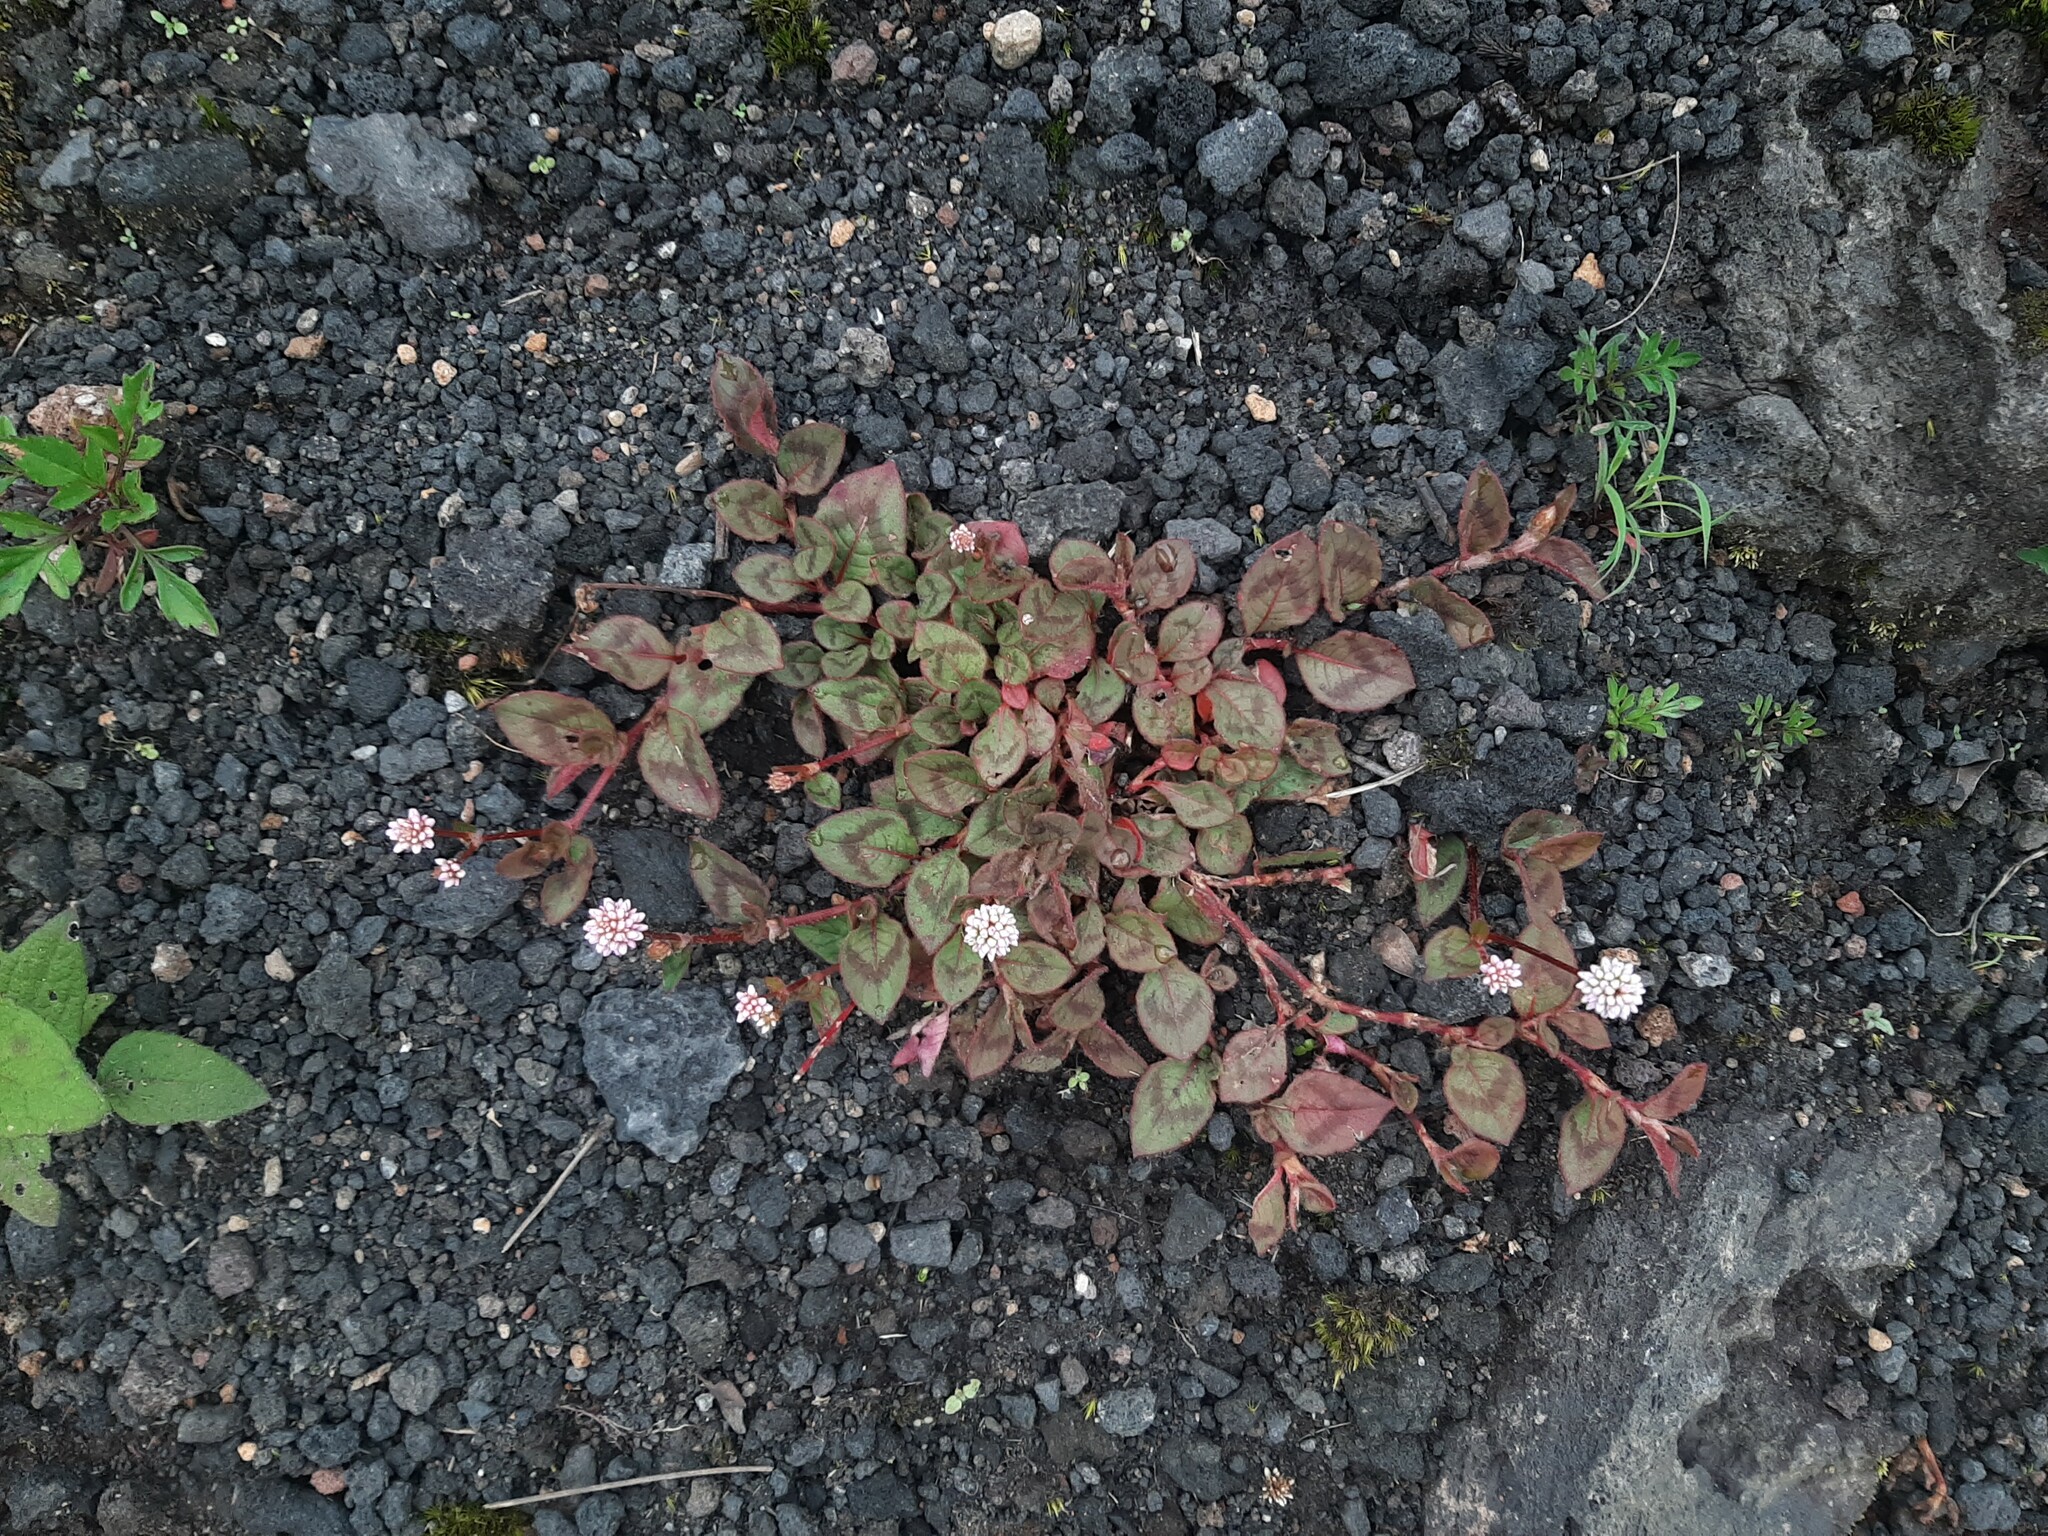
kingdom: Plantae
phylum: Tracheophyta
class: Magnoliopsida
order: Caryophyllales
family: Polygonaceae
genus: Persicaria
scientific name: Persicaria capitata
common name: Pinkhead smartweed
